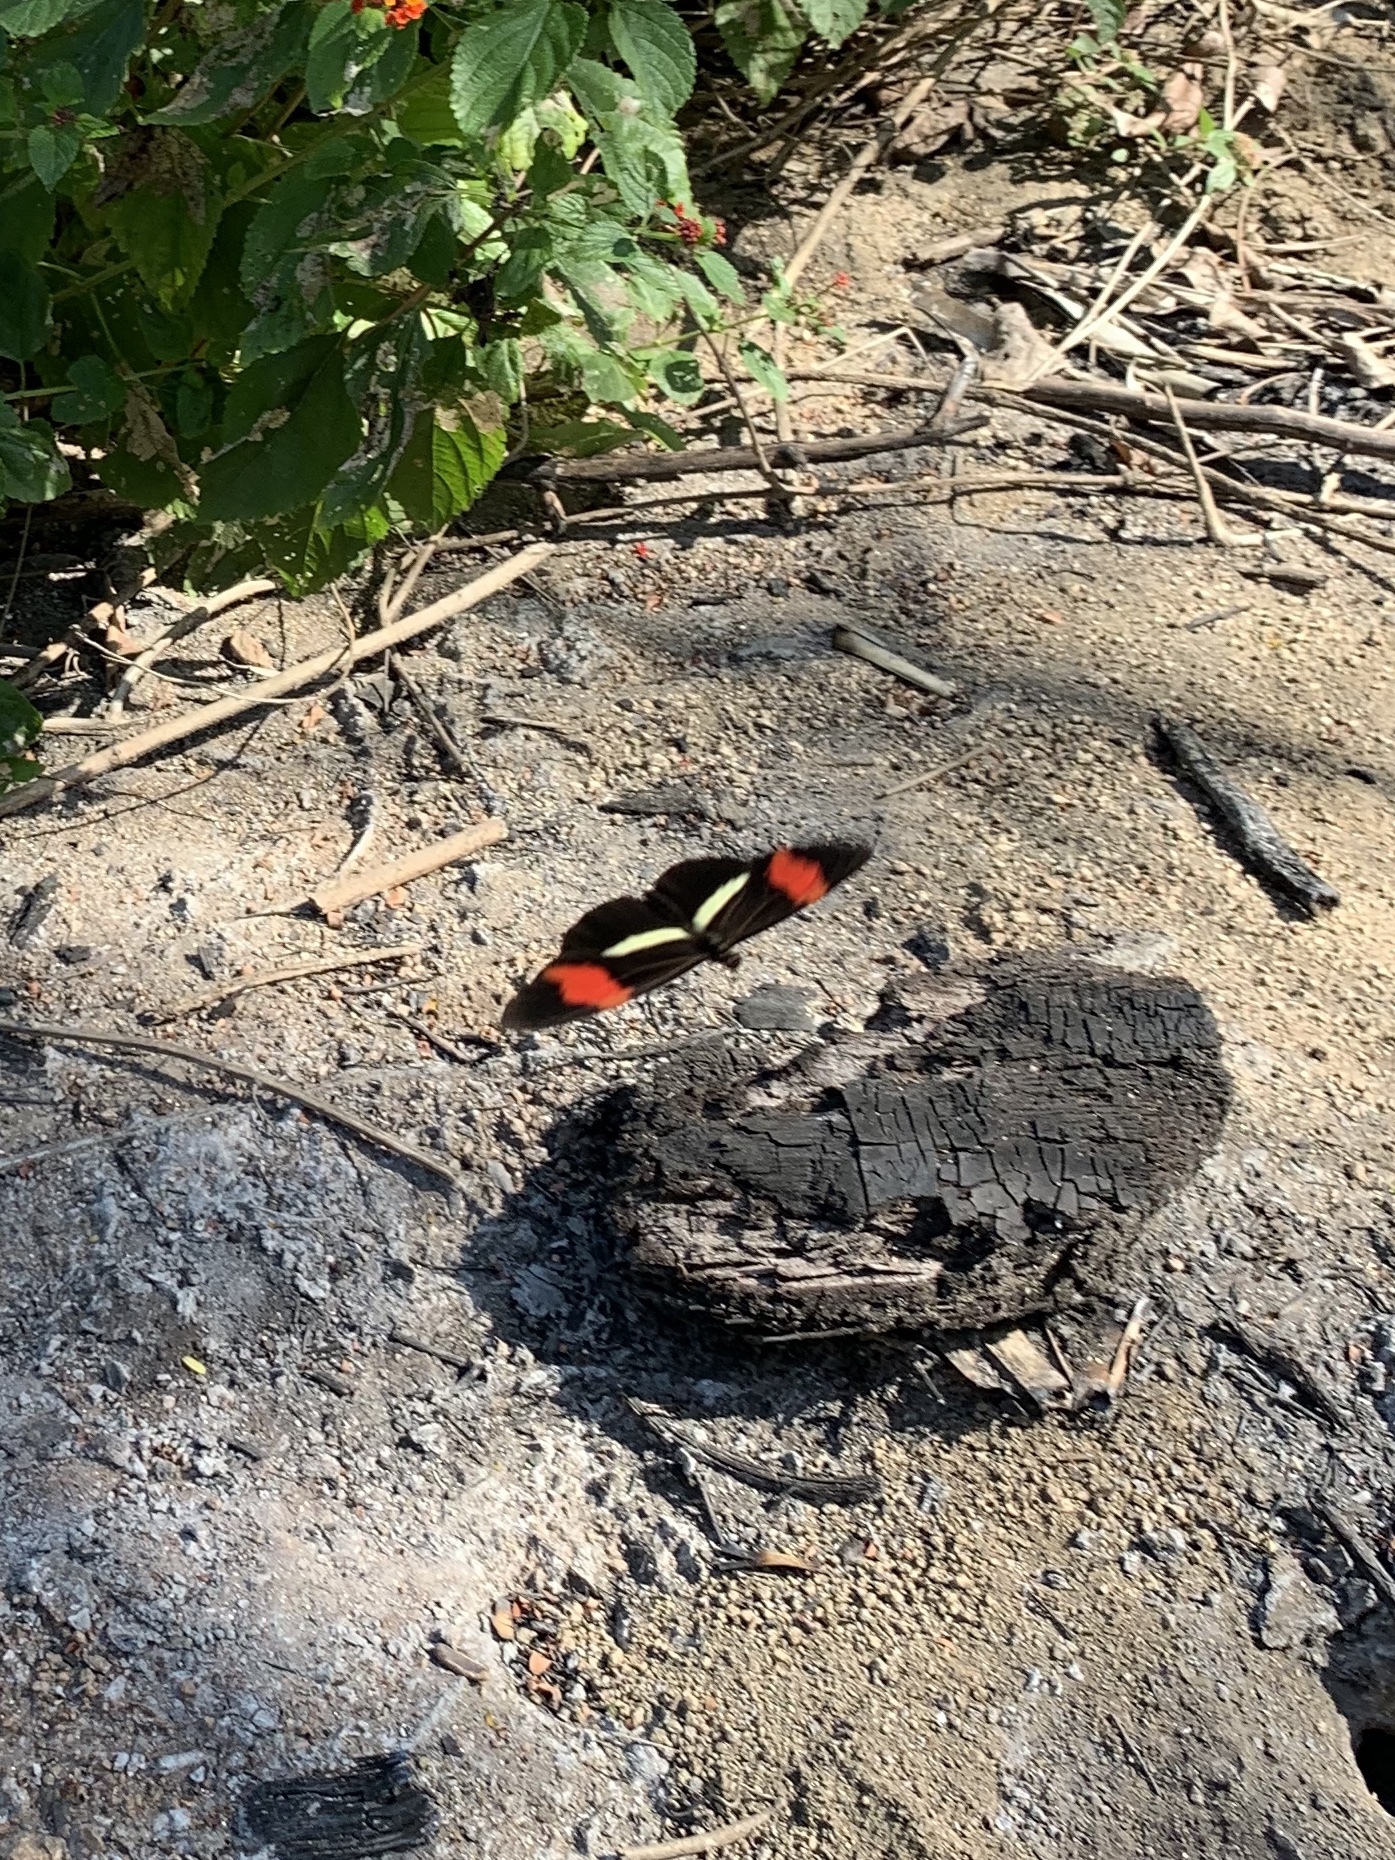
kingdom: Animalia
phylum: Arthropoda
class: Insecta
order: Lepidoptera
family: Nymphalidae
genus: Heliconius
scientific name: Heliconius erato
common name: Common patch longwing
